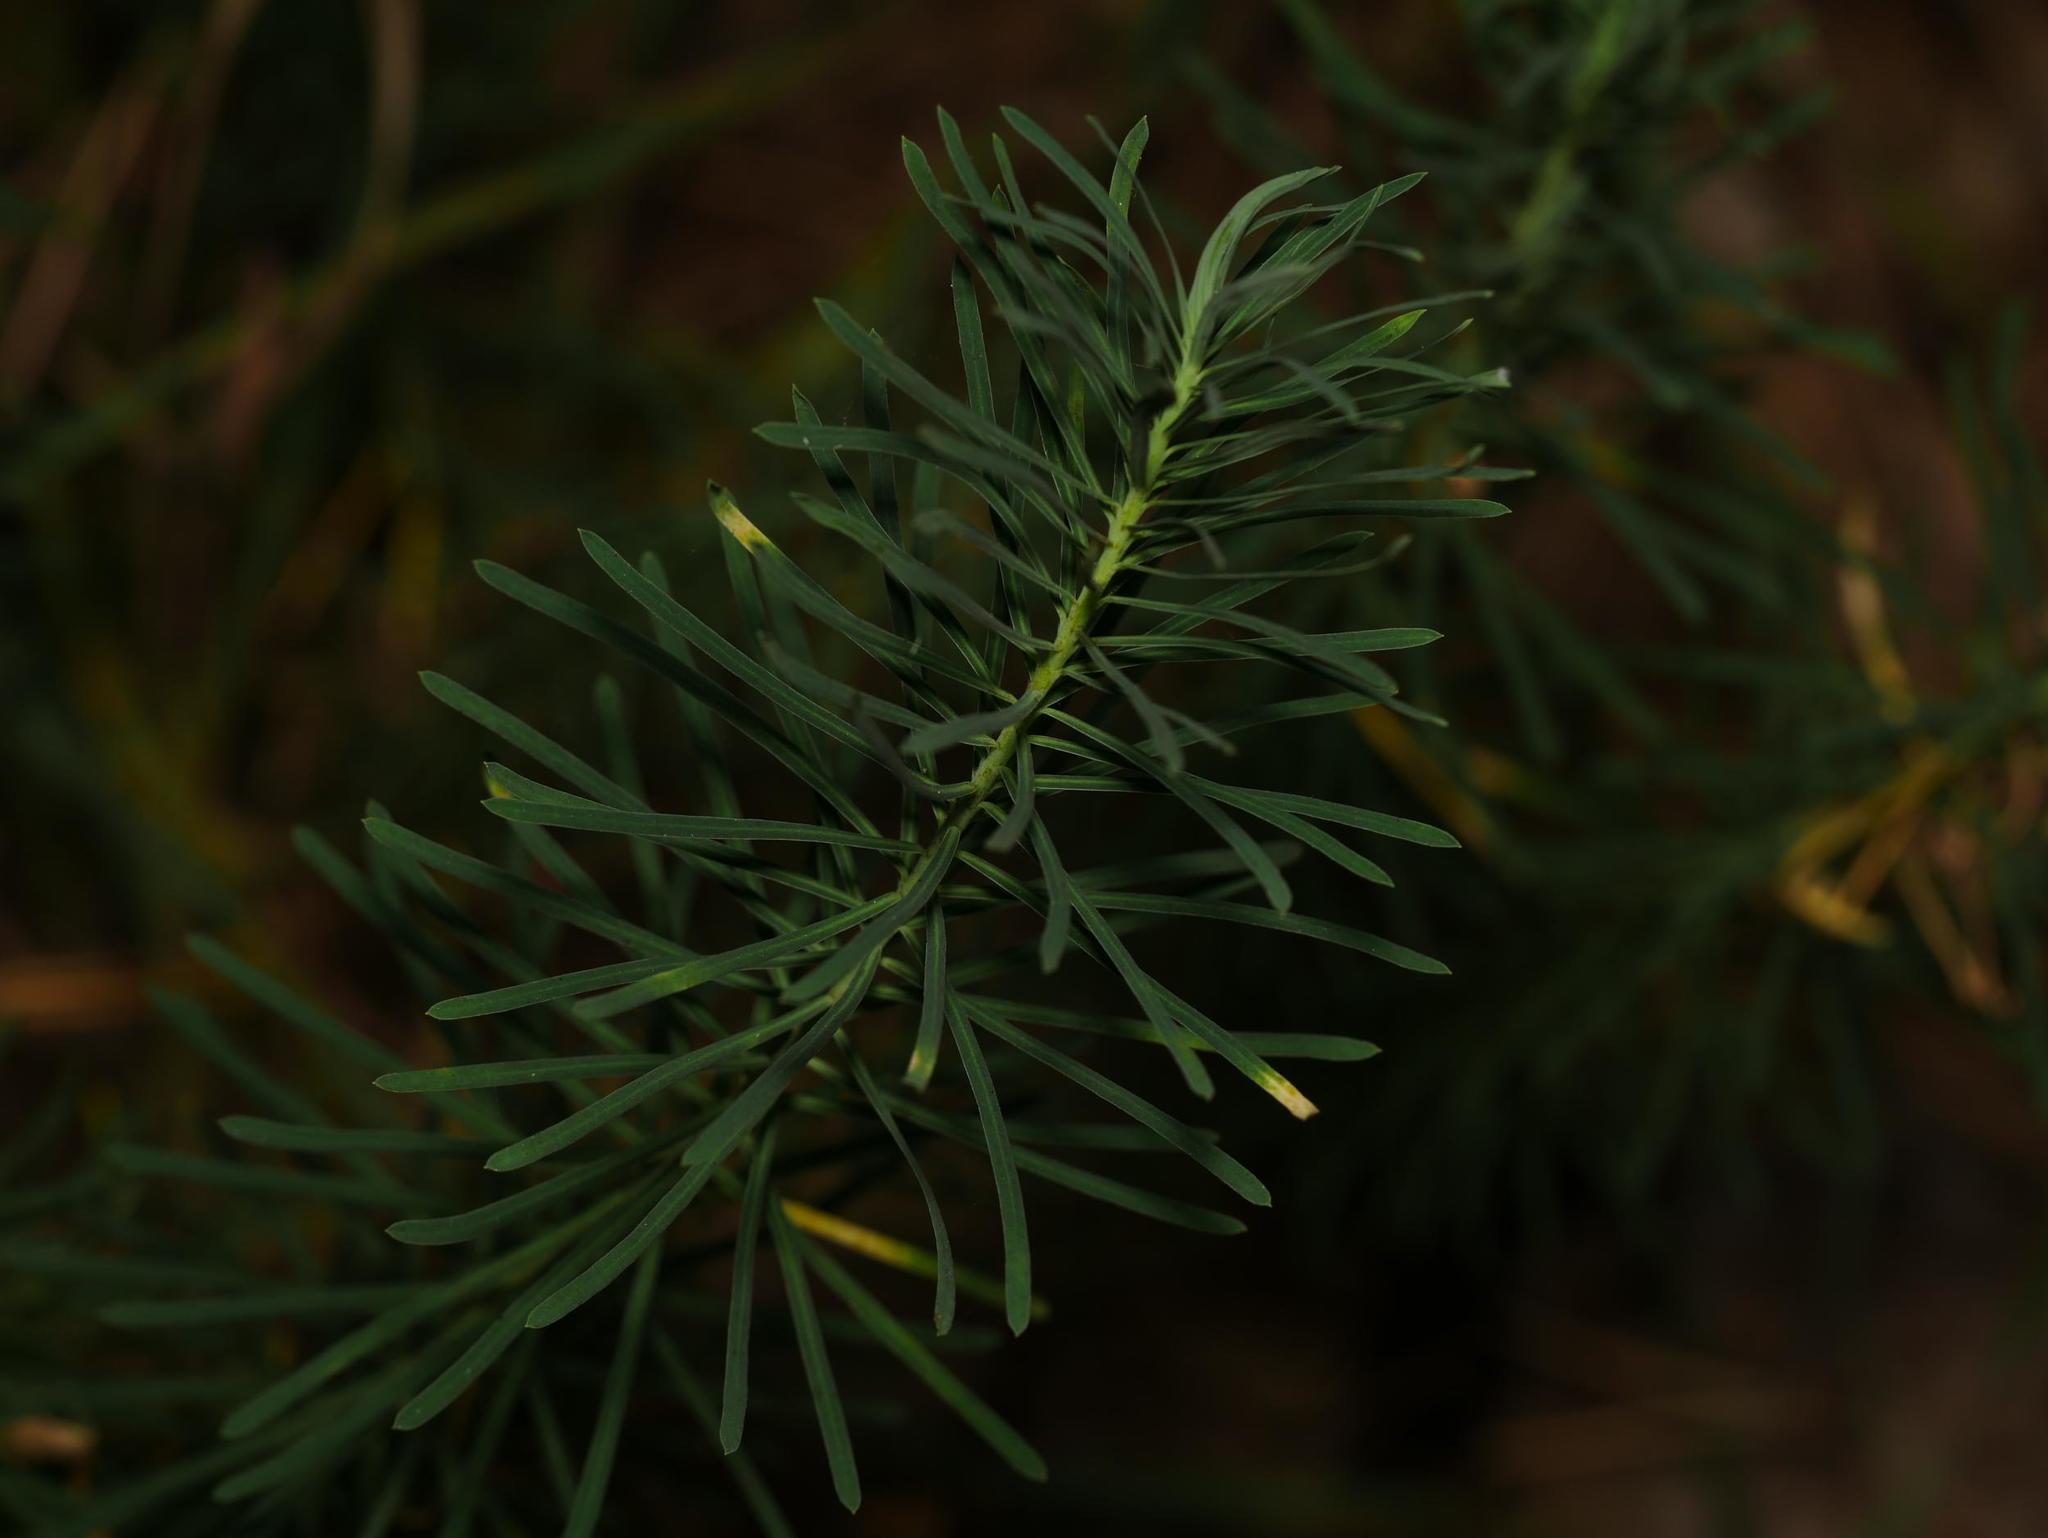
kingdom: Plantae
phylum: Tracheophyta
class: Magnoliopsida
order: Malpighiales
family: Euphorbiaceae
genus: Euphorbia
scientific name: Euphorbia cyparissias
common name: Cypress spurge
